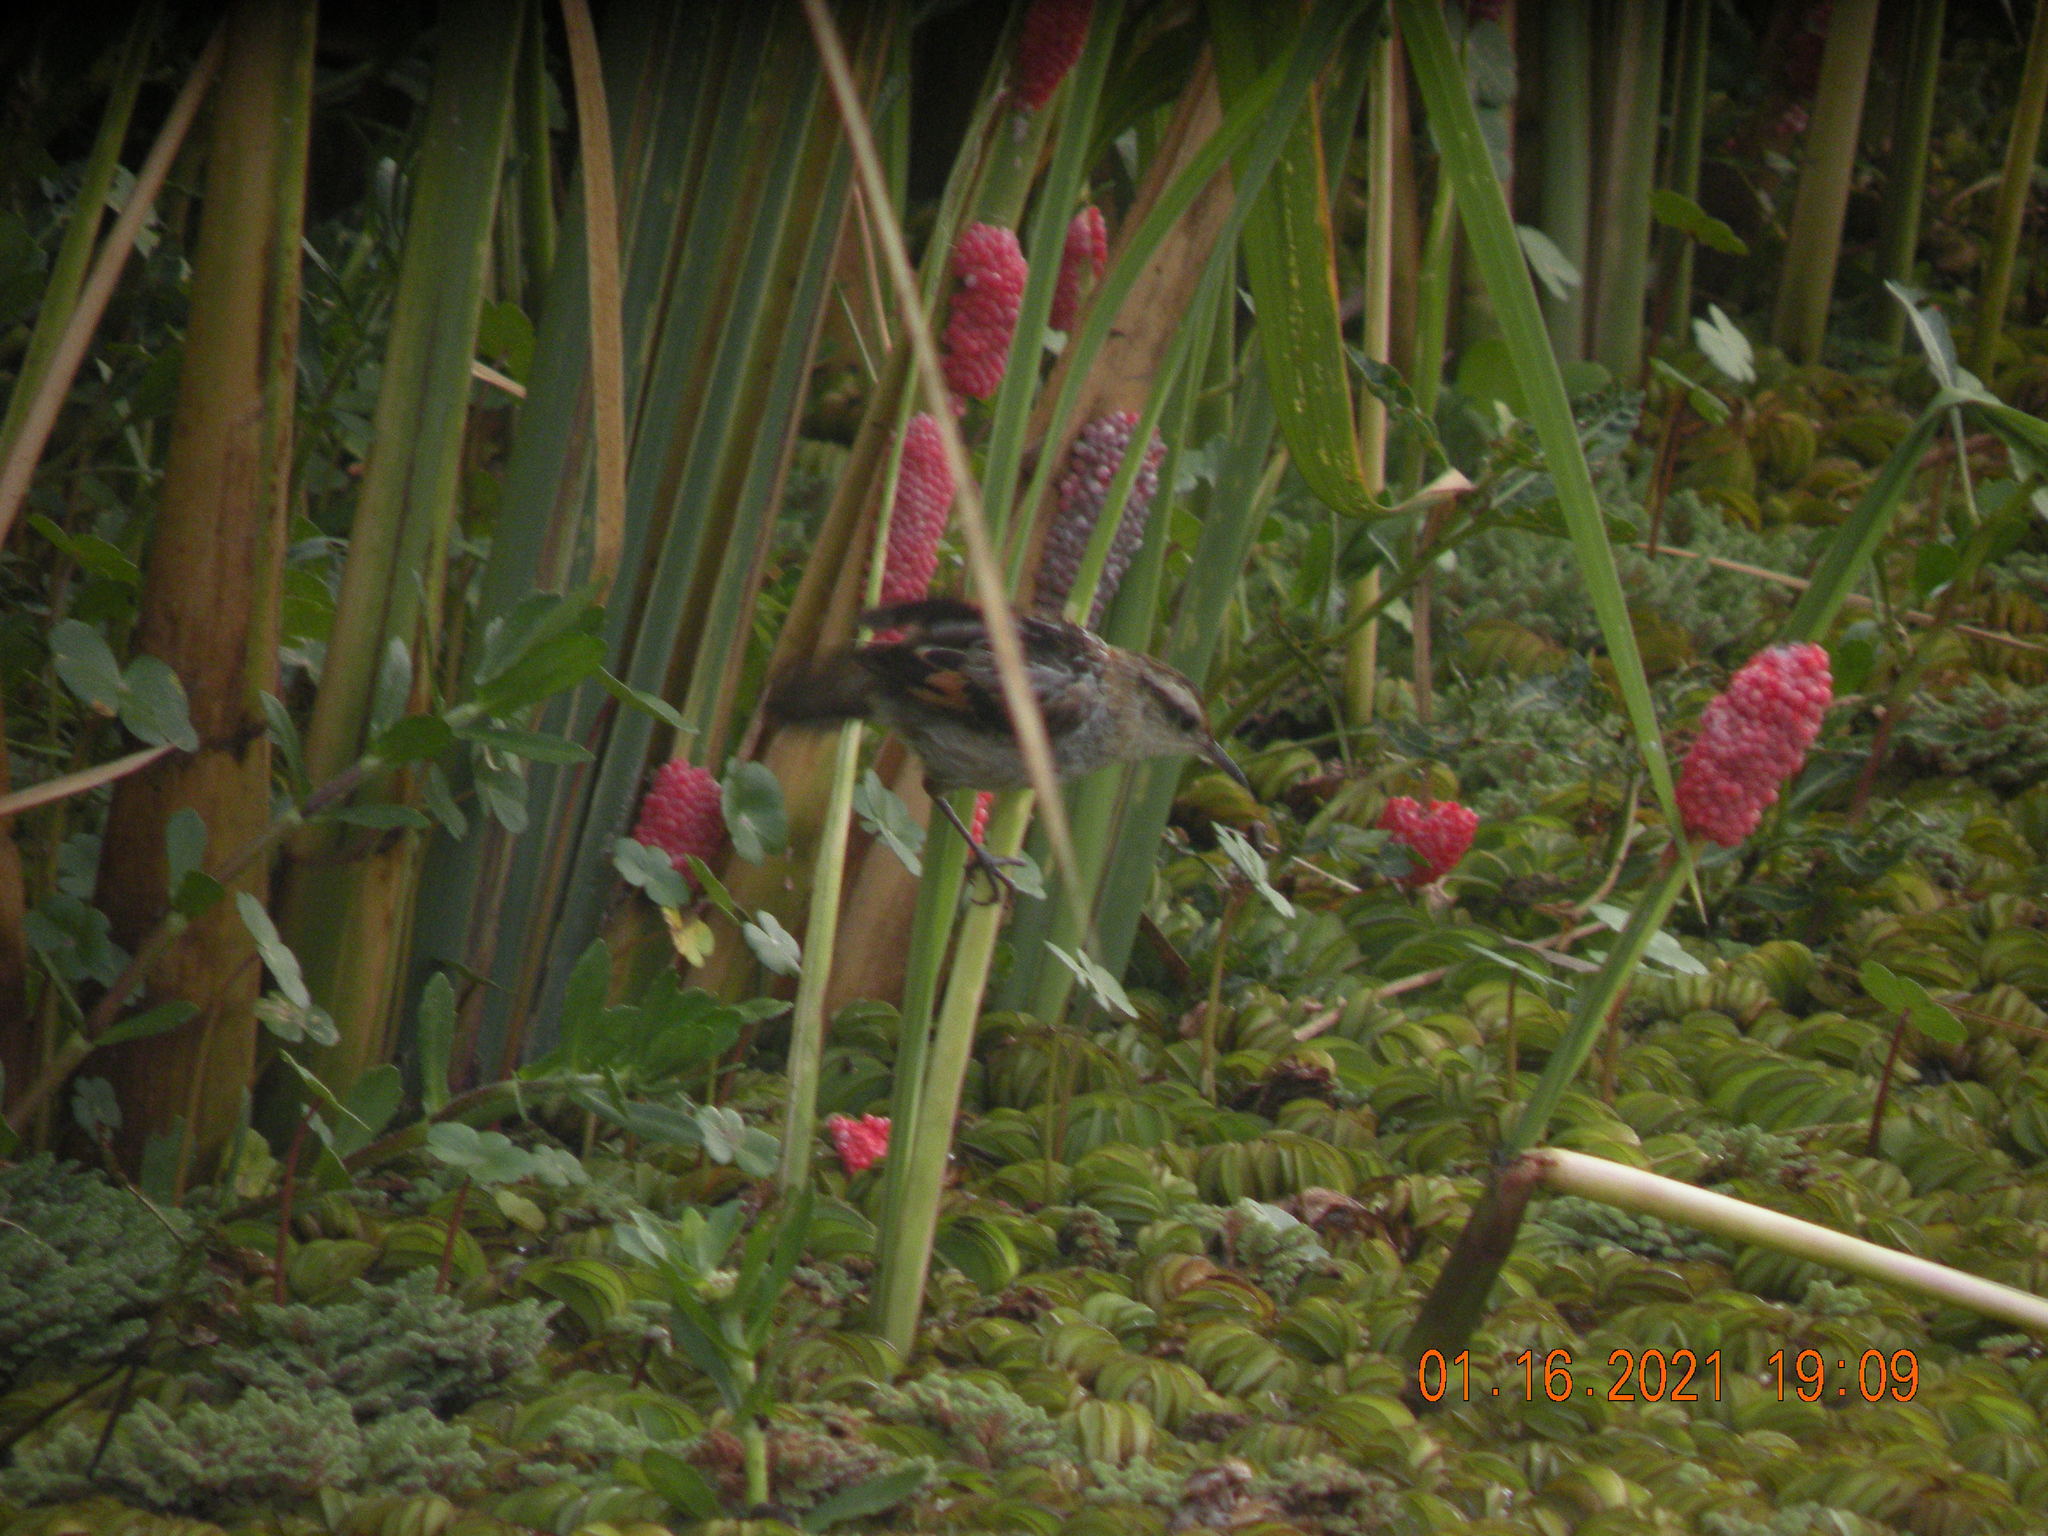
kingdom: Animalia
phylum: Chordata
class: Aves
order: Passeriformes
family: Furnariidae
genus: Phleocryptes
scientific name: Phleocryptes melanops
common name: Wren-like rushbird
